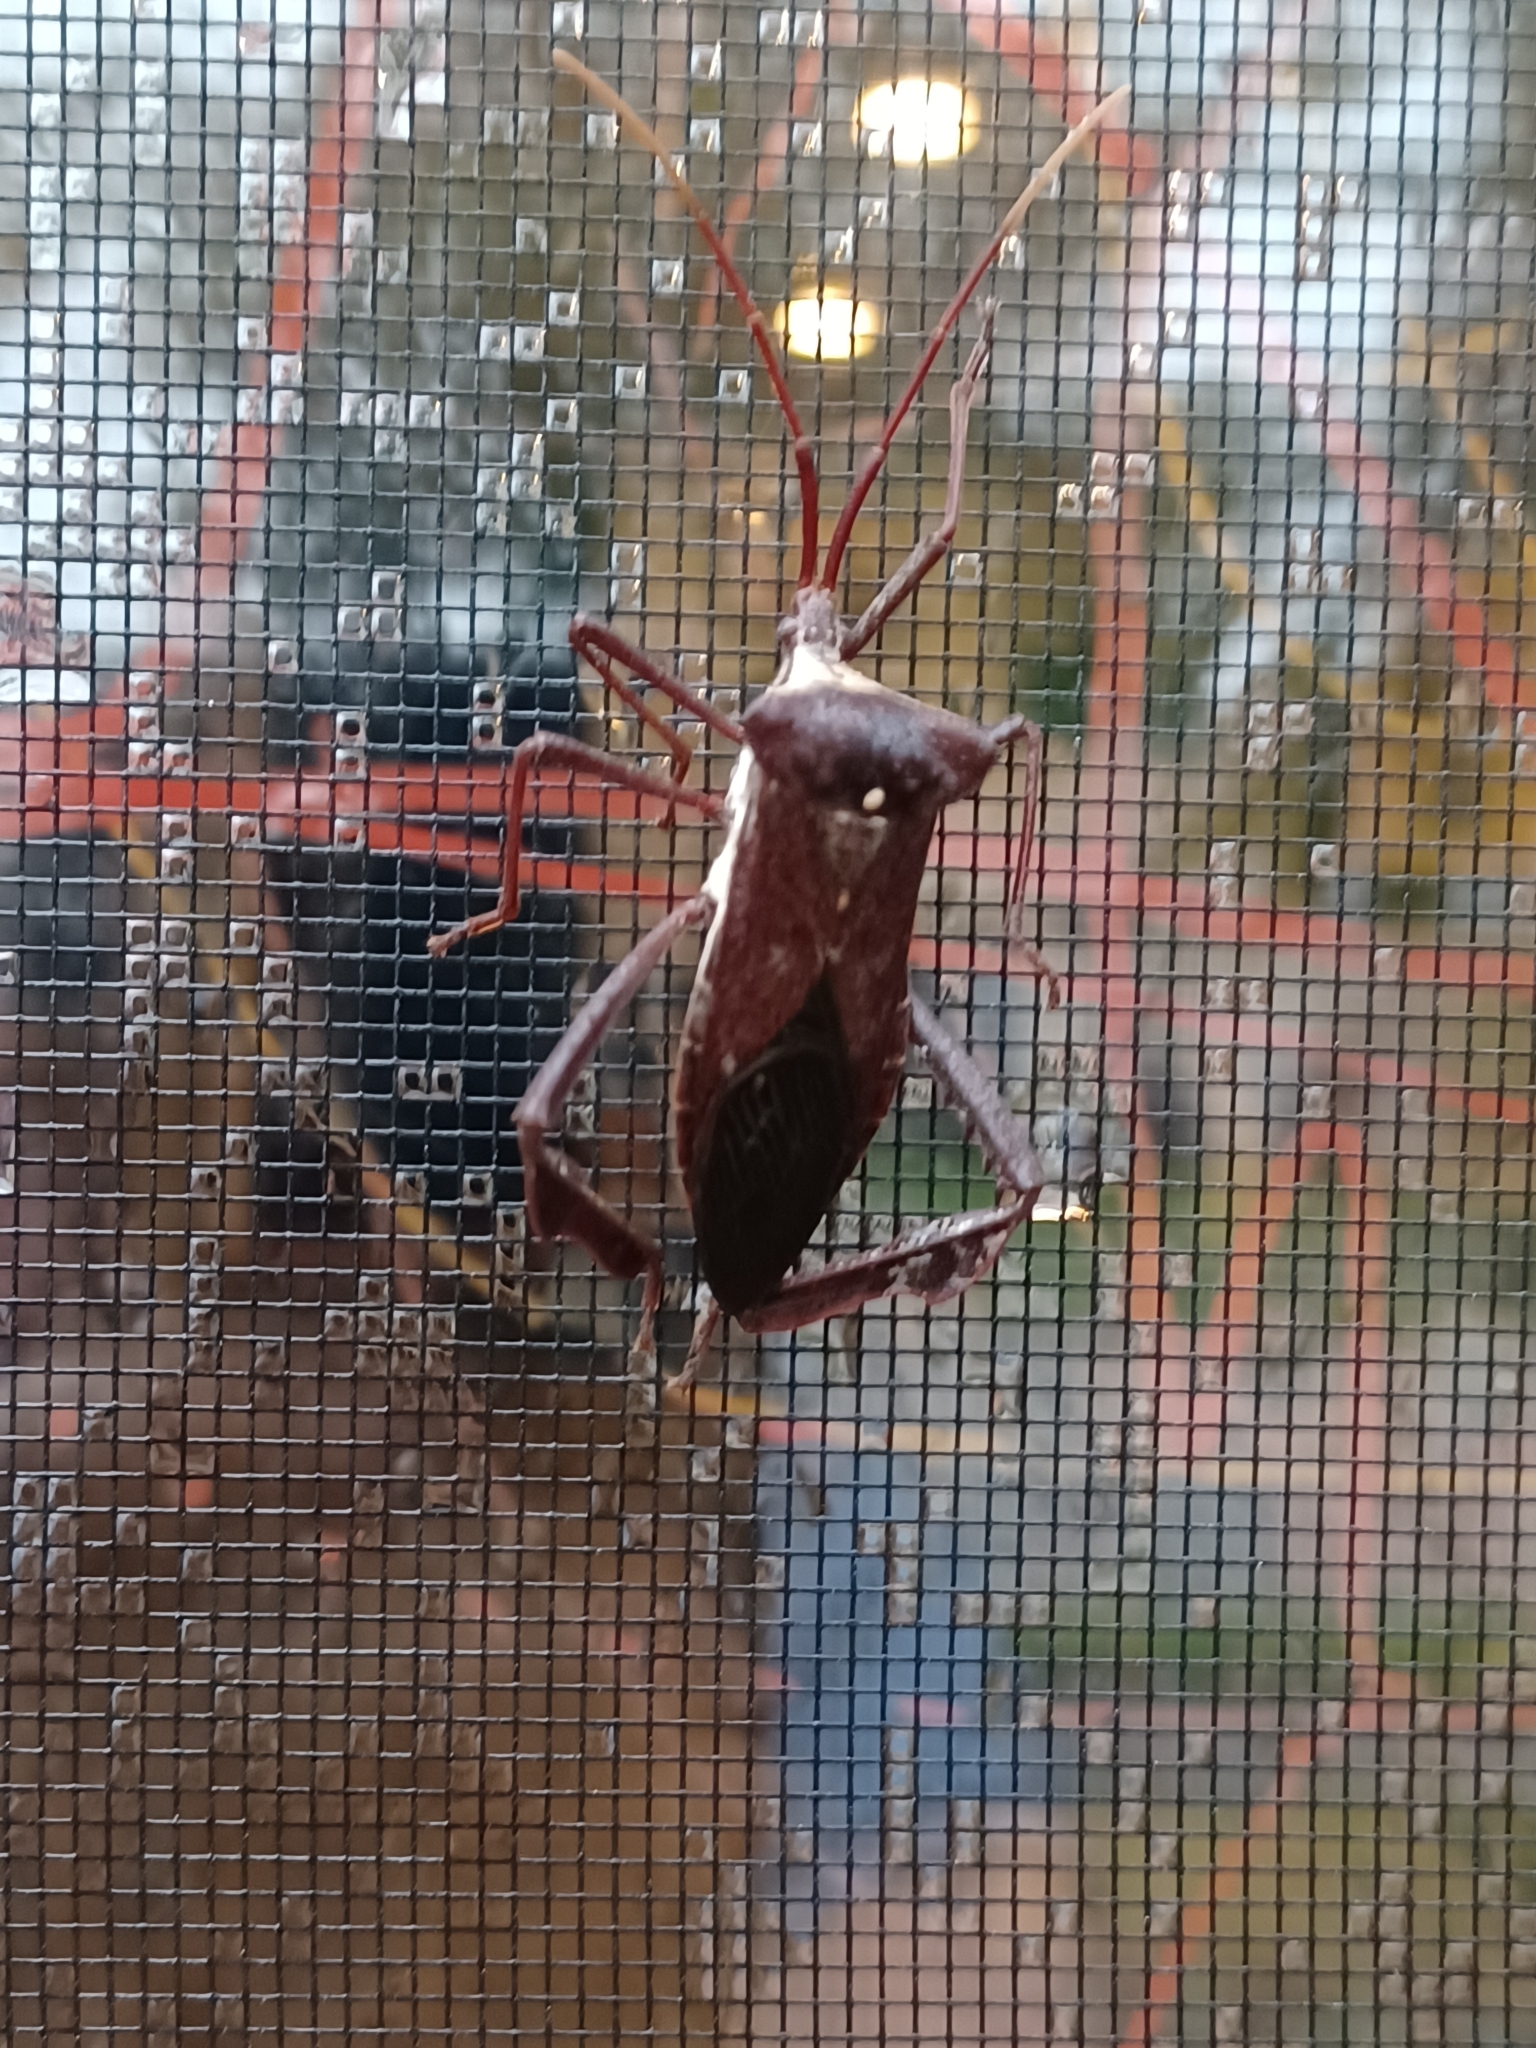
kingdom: Animalia
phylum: Arthropoda
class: Insecta
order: Hemiptera
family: Coreidae
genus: Acanthocephala
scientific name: Acanthocephala declivis
